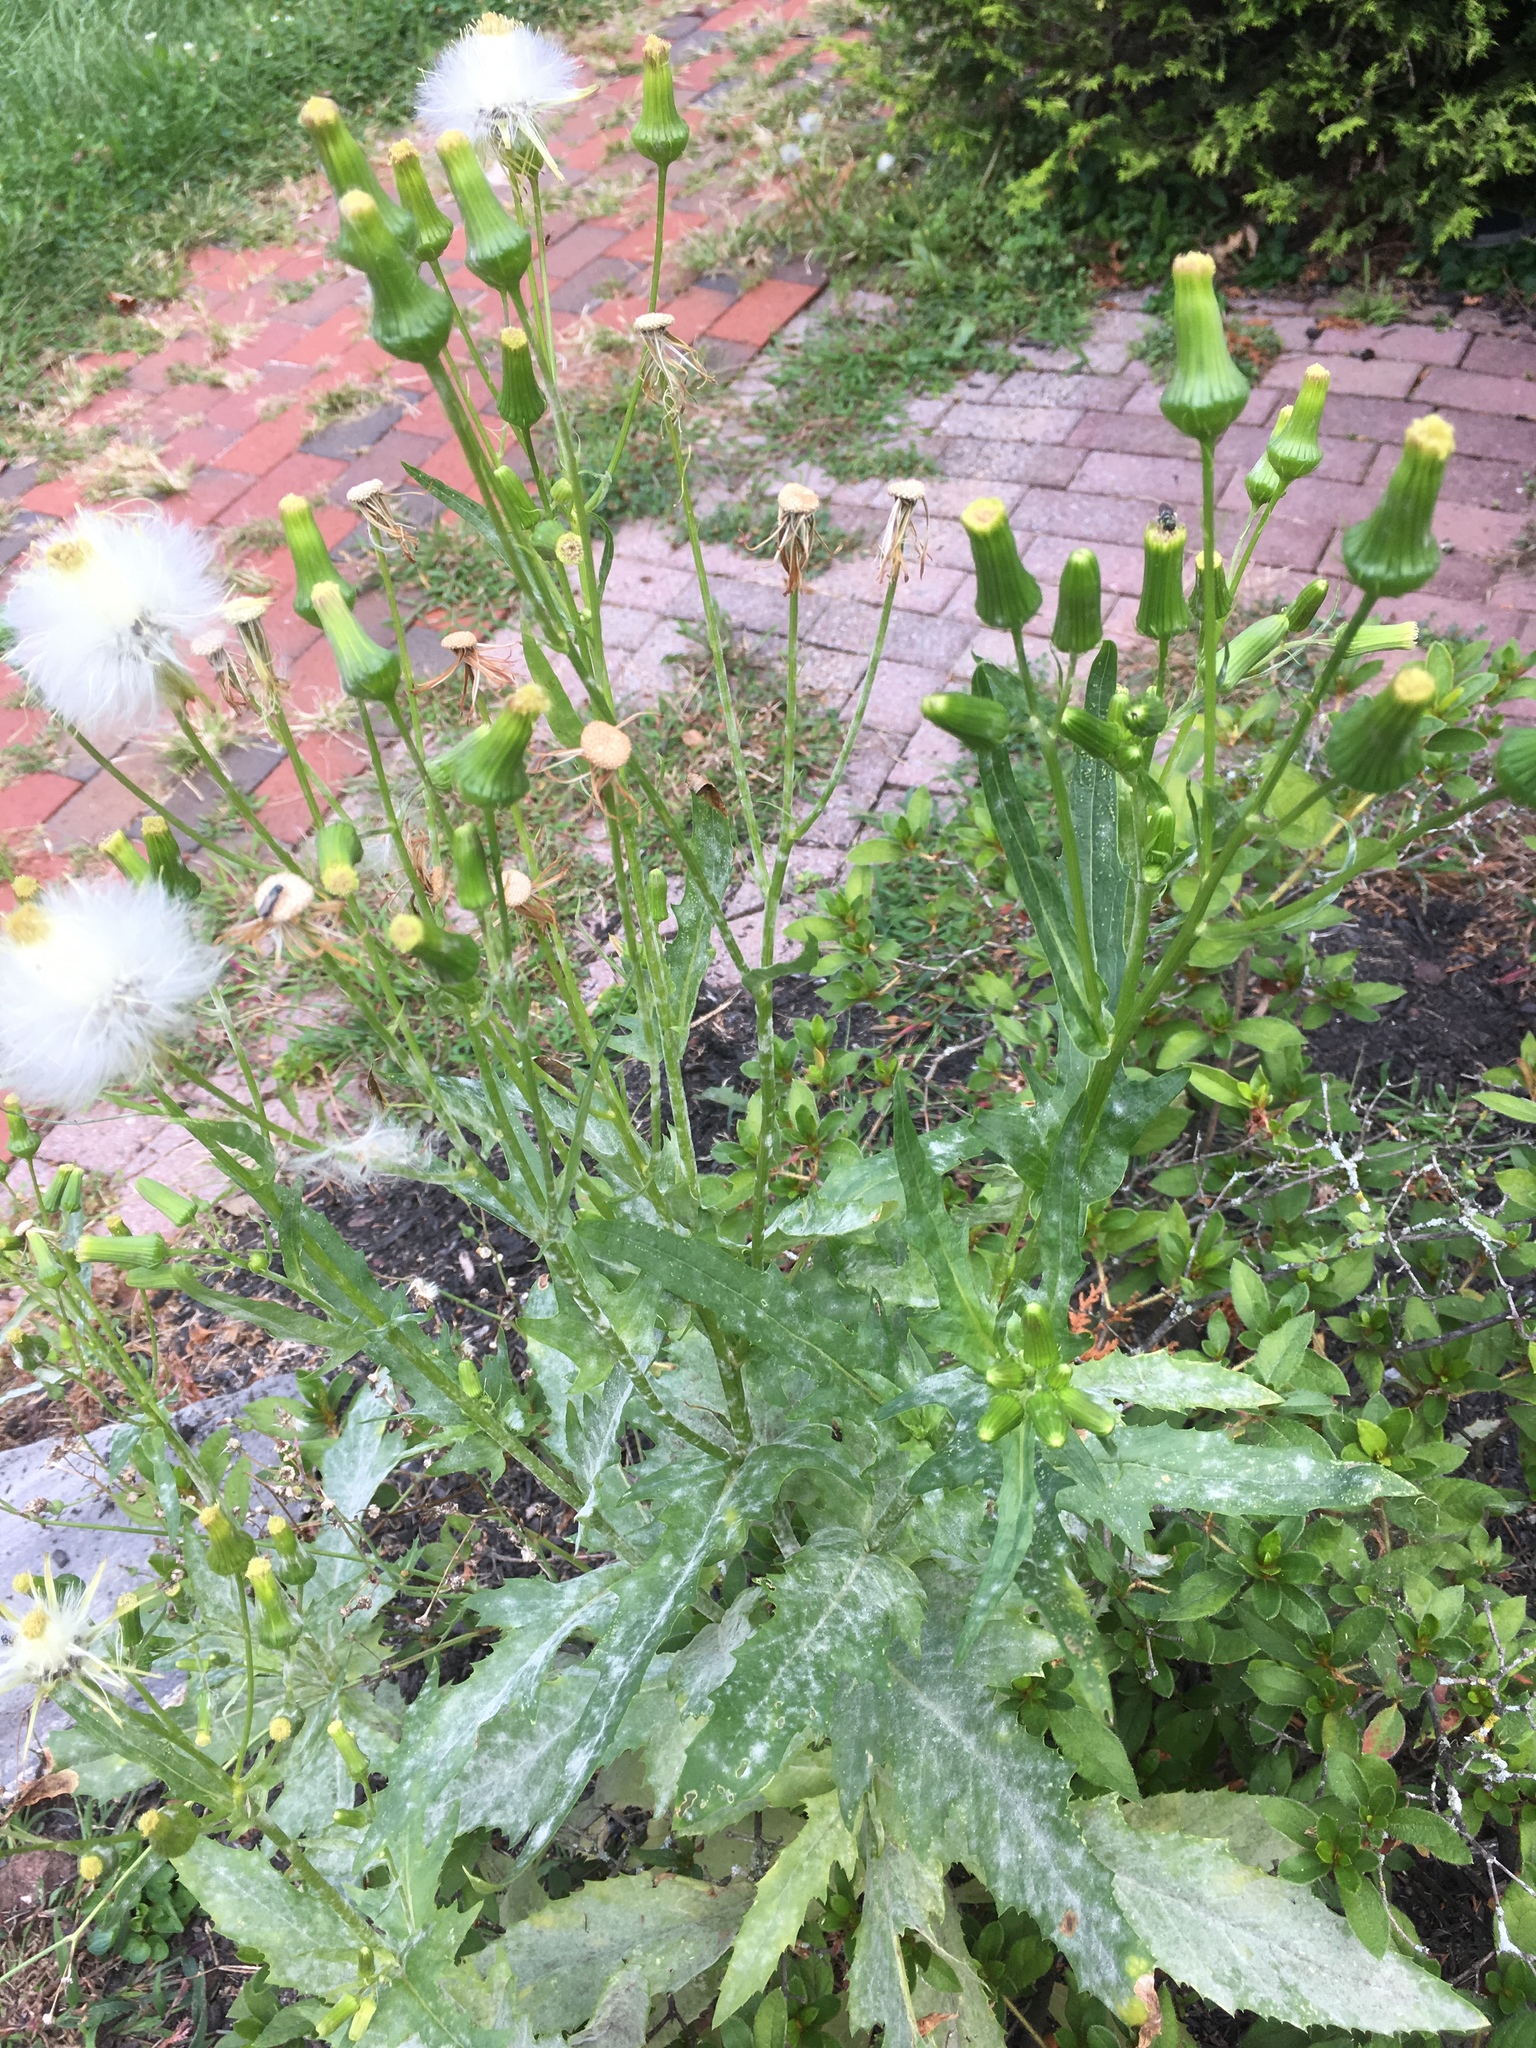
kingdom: Plantae
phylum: Tracheophyta
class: Magnoliopsida
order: Asterales
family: Asteraceae
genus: Erechtites
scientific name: Erechtites hieraciifolius
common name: American burnweed
